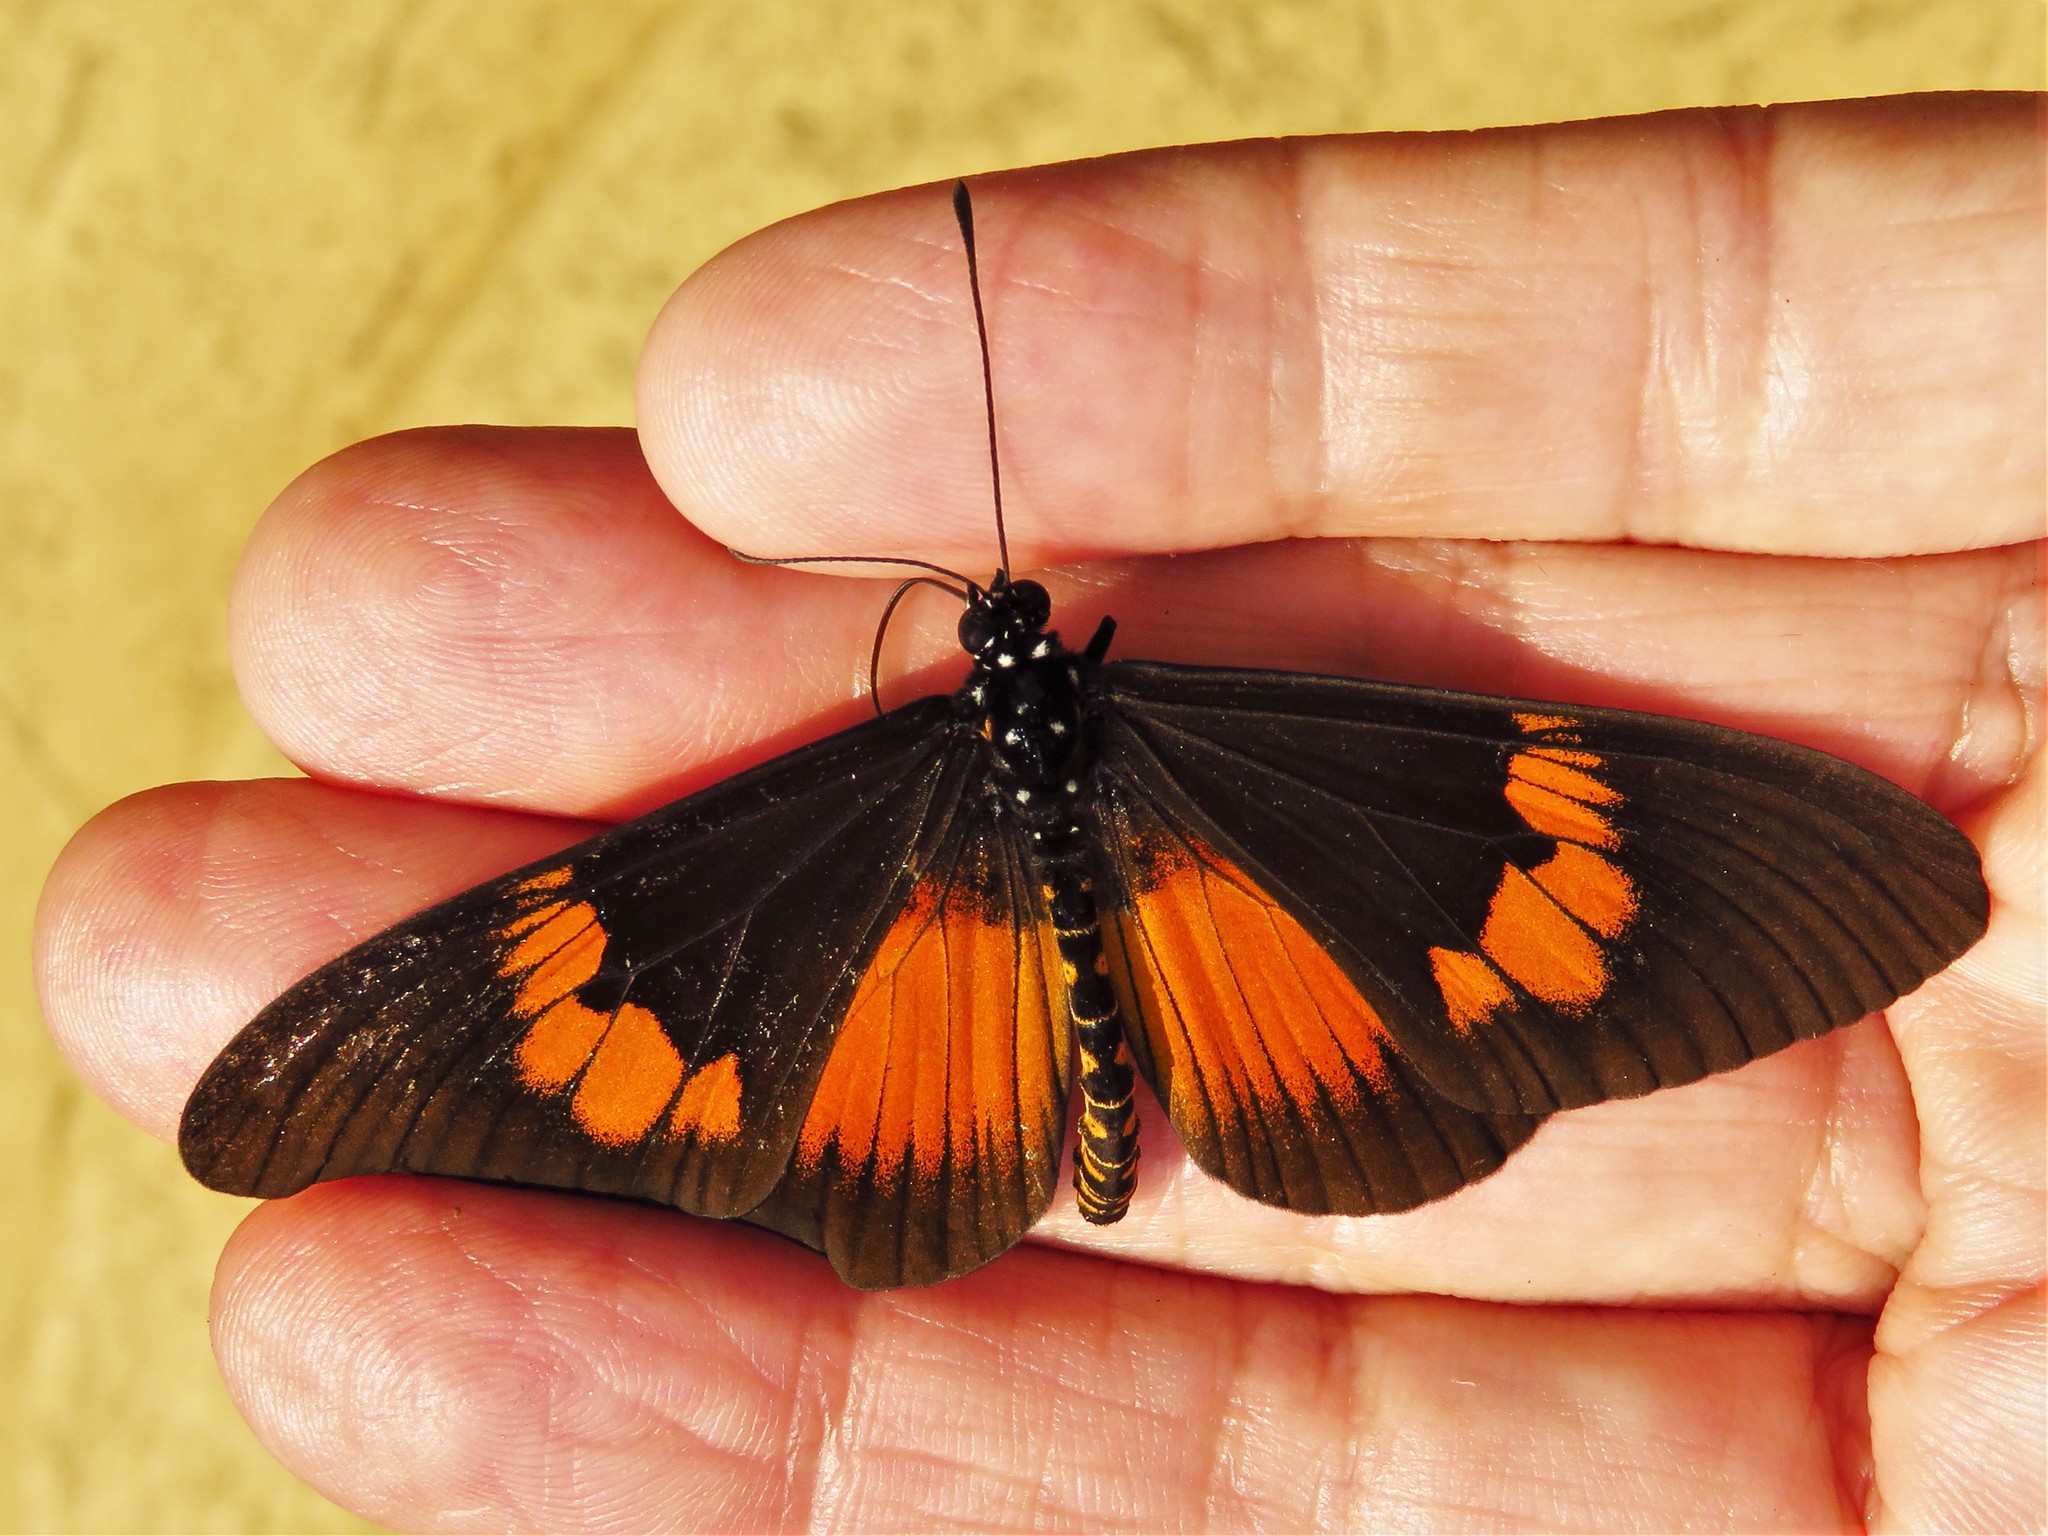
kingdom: Animalia
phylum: Arthropoda
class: Insecta
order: Lepidoptera
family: Nymphalidae
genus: Acraea
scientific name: Acraea Bematistes aganice
